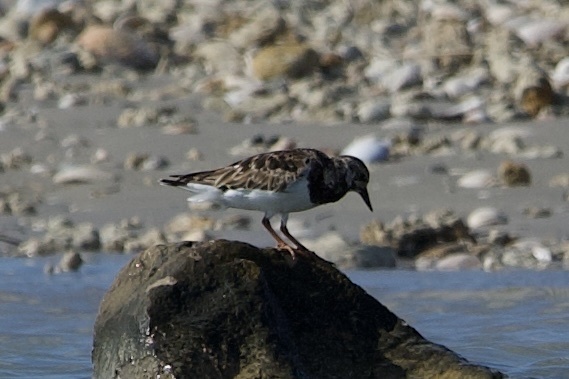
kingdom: Animalia
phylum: Chordata
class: Aves
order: Charadriiformes
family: Scolopacidae
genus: Arenaria
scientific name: Arenaria interpres
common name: Ruddy turnstone
